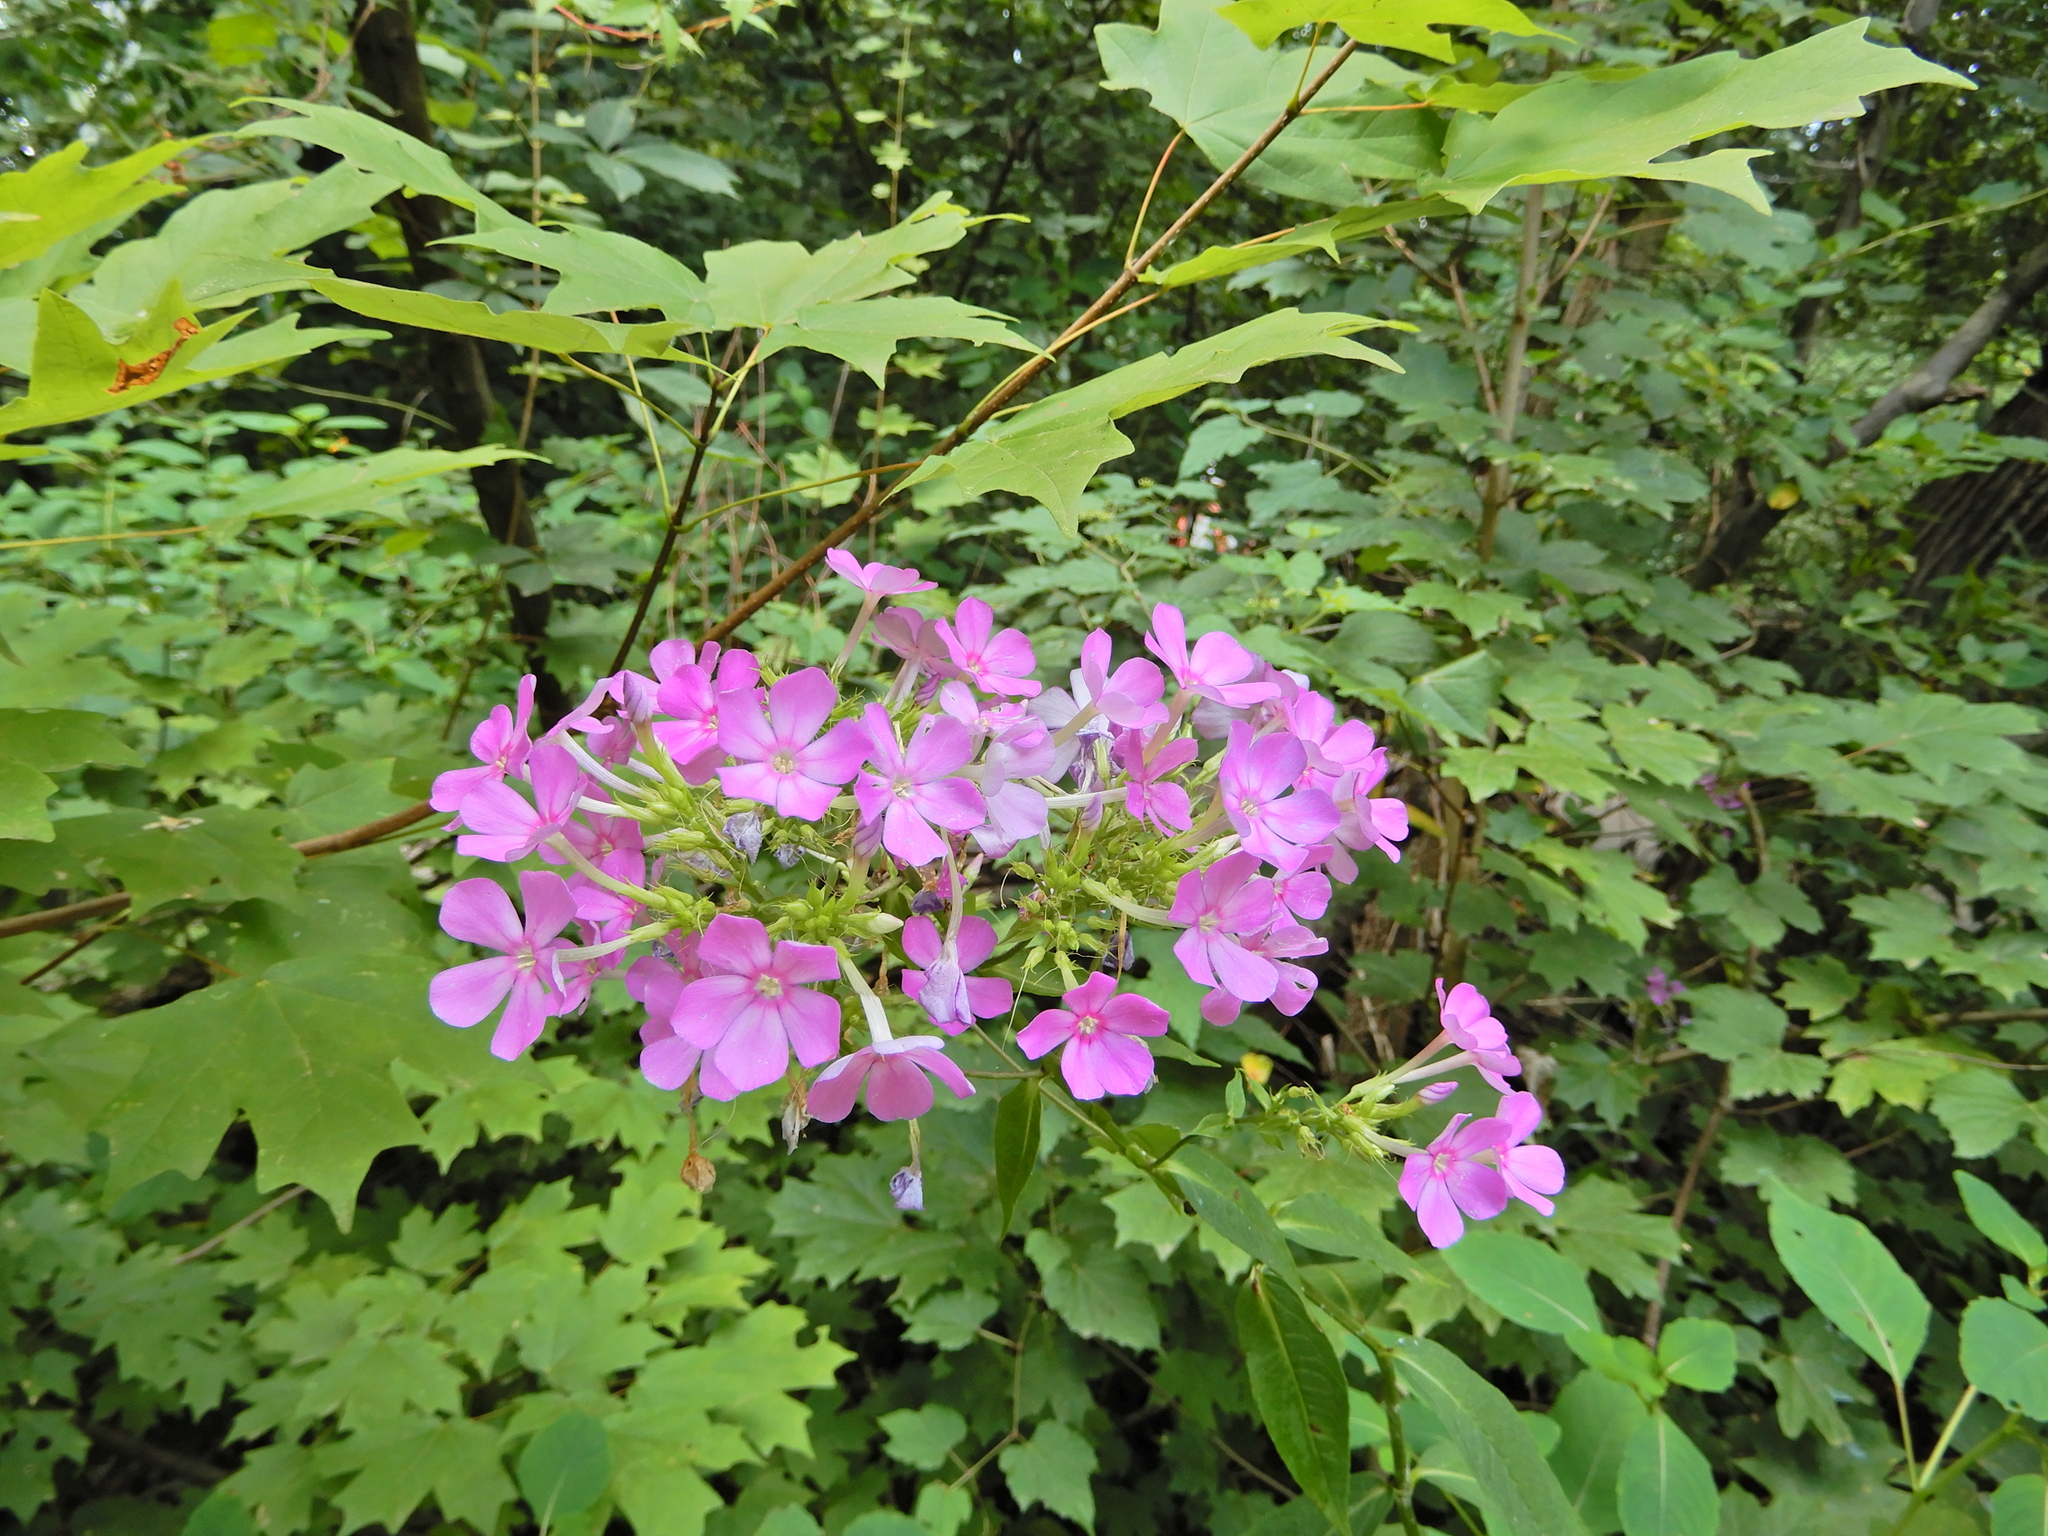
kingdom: Plantae
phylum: Tracheophyta
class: Magnoliopsida
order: Ericales
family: Polemoniaceae
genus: Phlox
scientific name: Phlox paniculata
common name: Fall phlox
